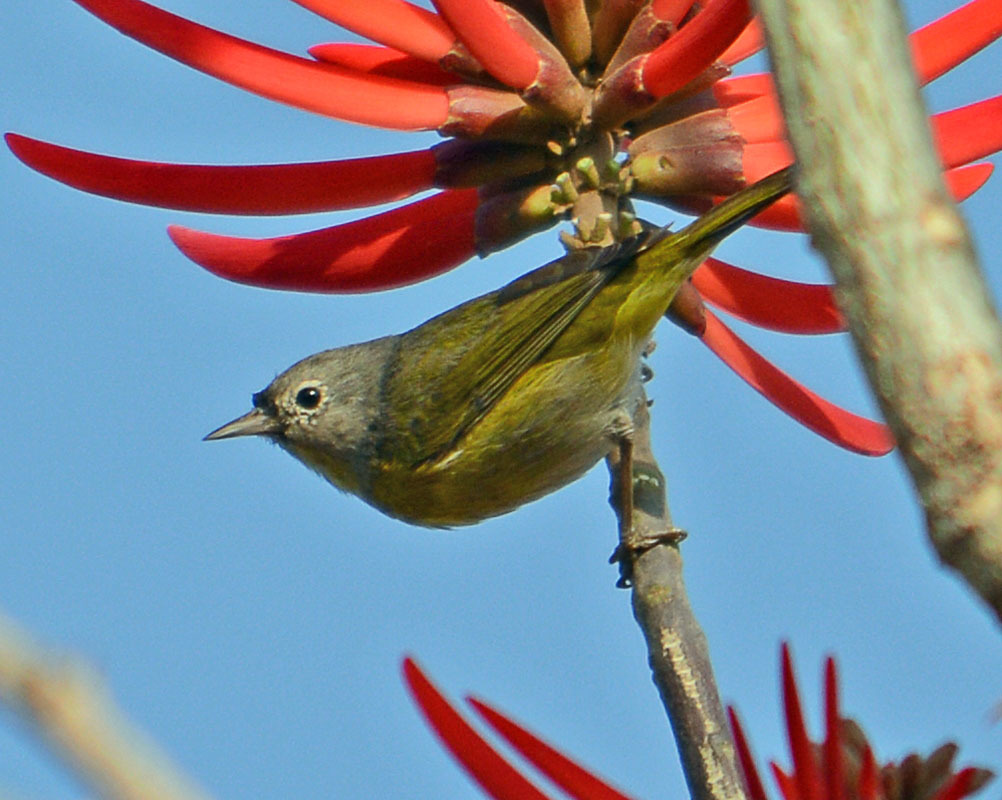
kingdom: Animalia
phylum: Chordata
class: Aves
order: Passeriformes
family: Parulidae
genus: Leiothlypis
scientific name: Leiothlypis ruficapilla
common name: Nashville warbler
